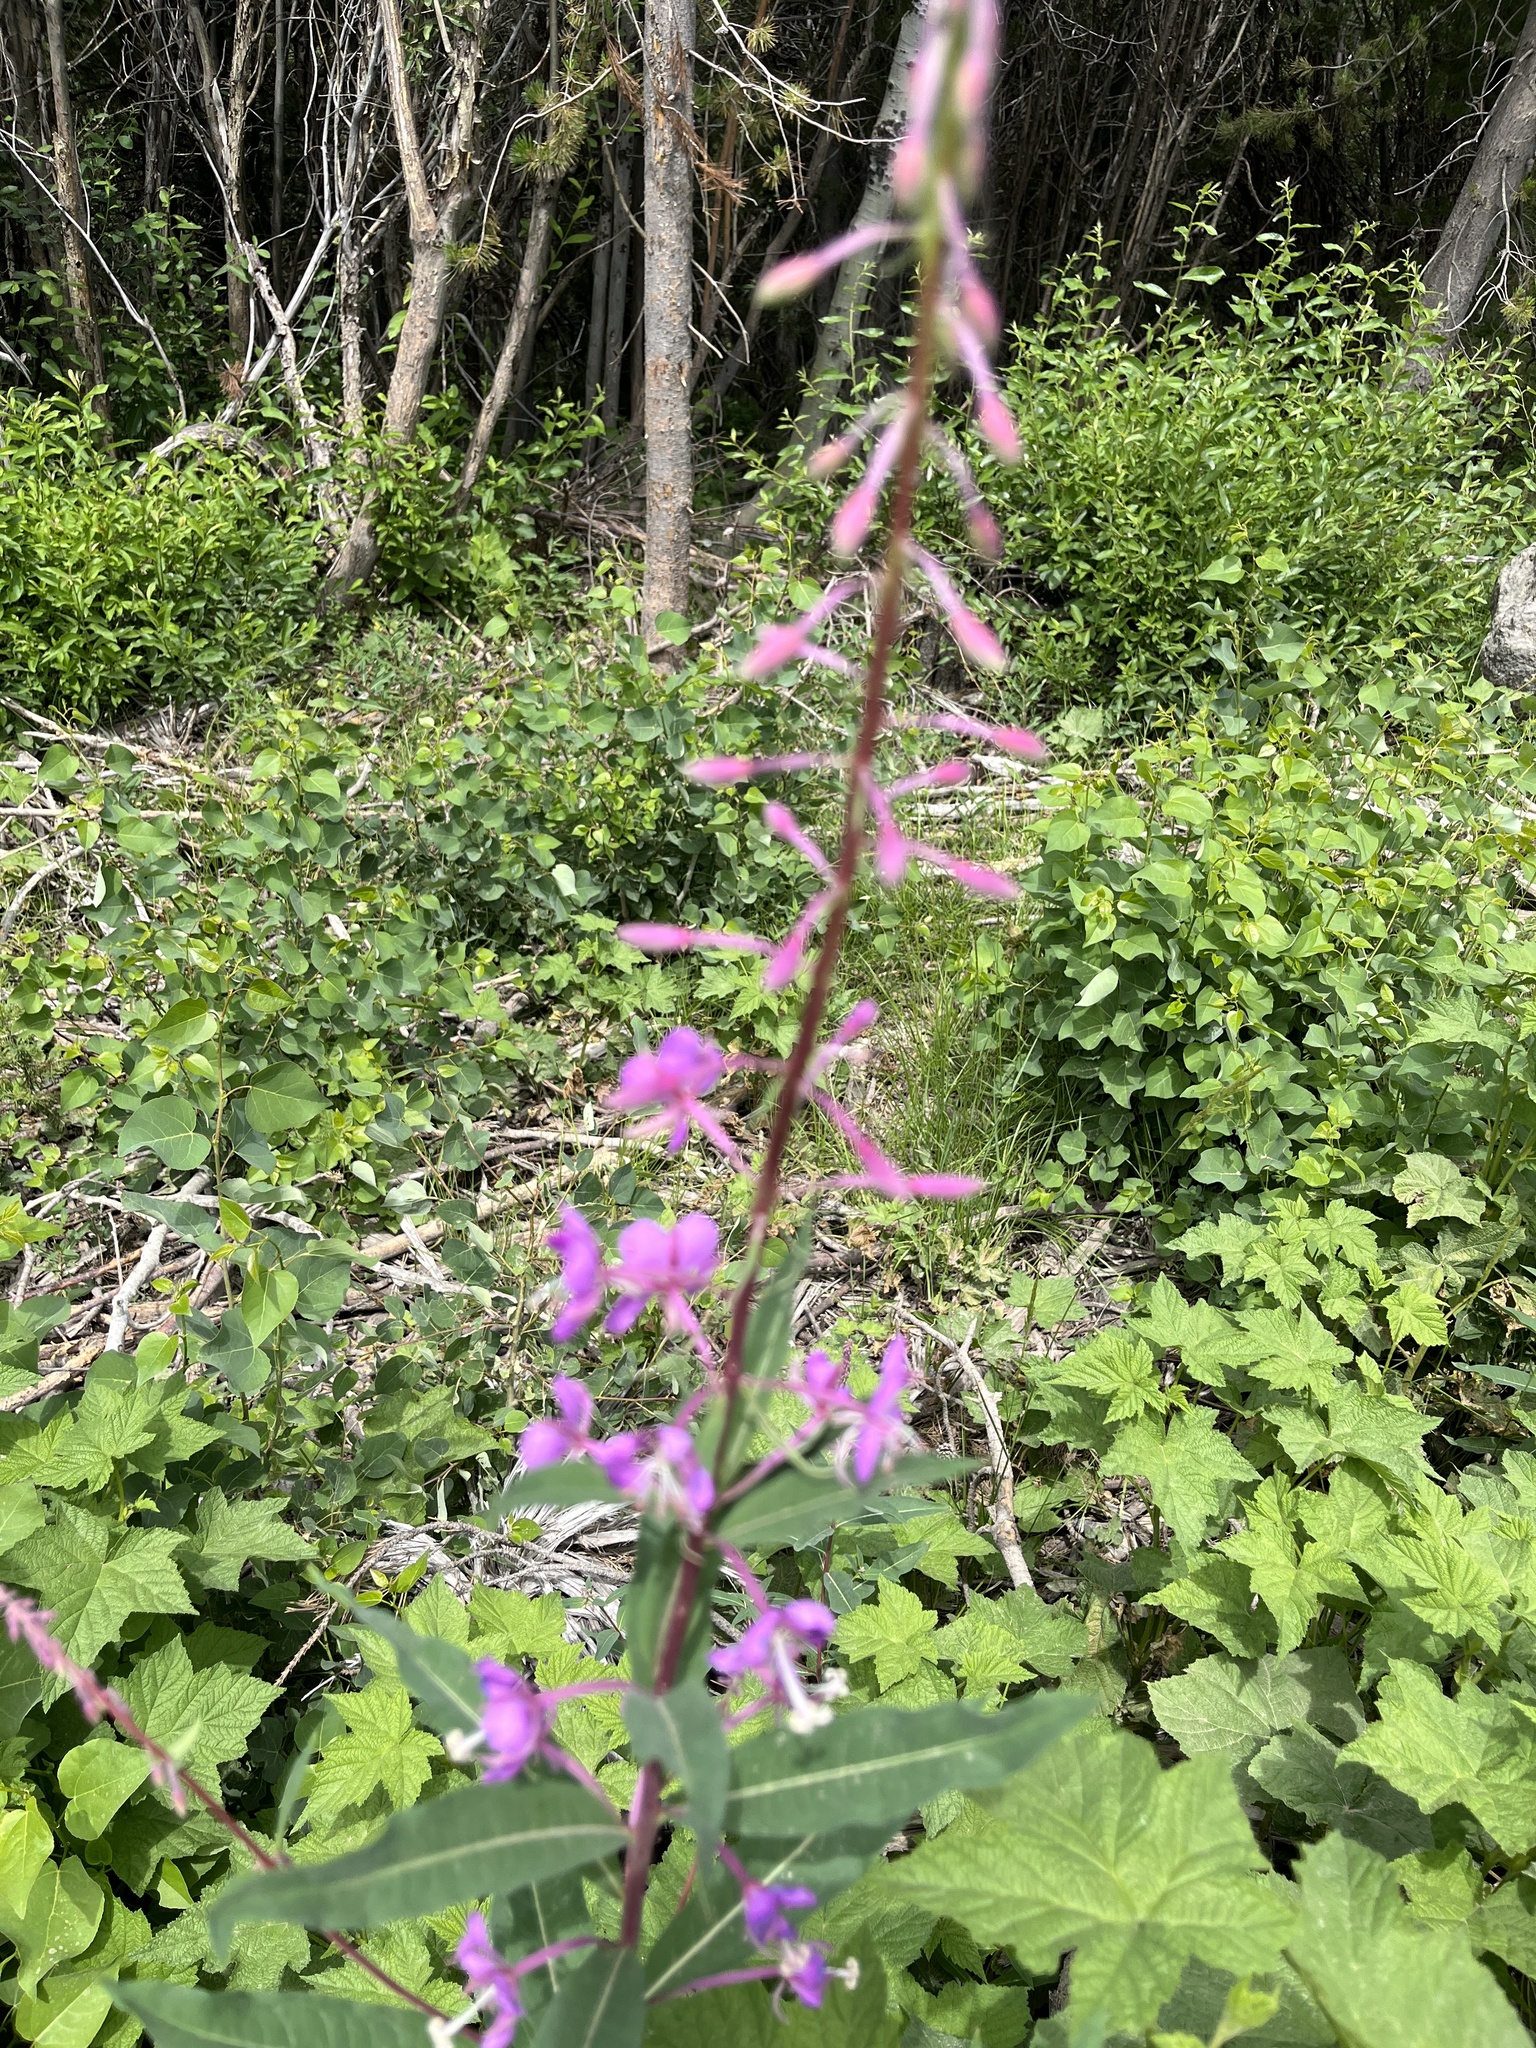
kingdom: Plantae
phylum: Tracheophyta
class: Magnoliopsida
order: Myrtales
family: Onagraceae
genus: Chamaenerion
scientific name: Chamaenerion angustifolium
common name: Fireweed
